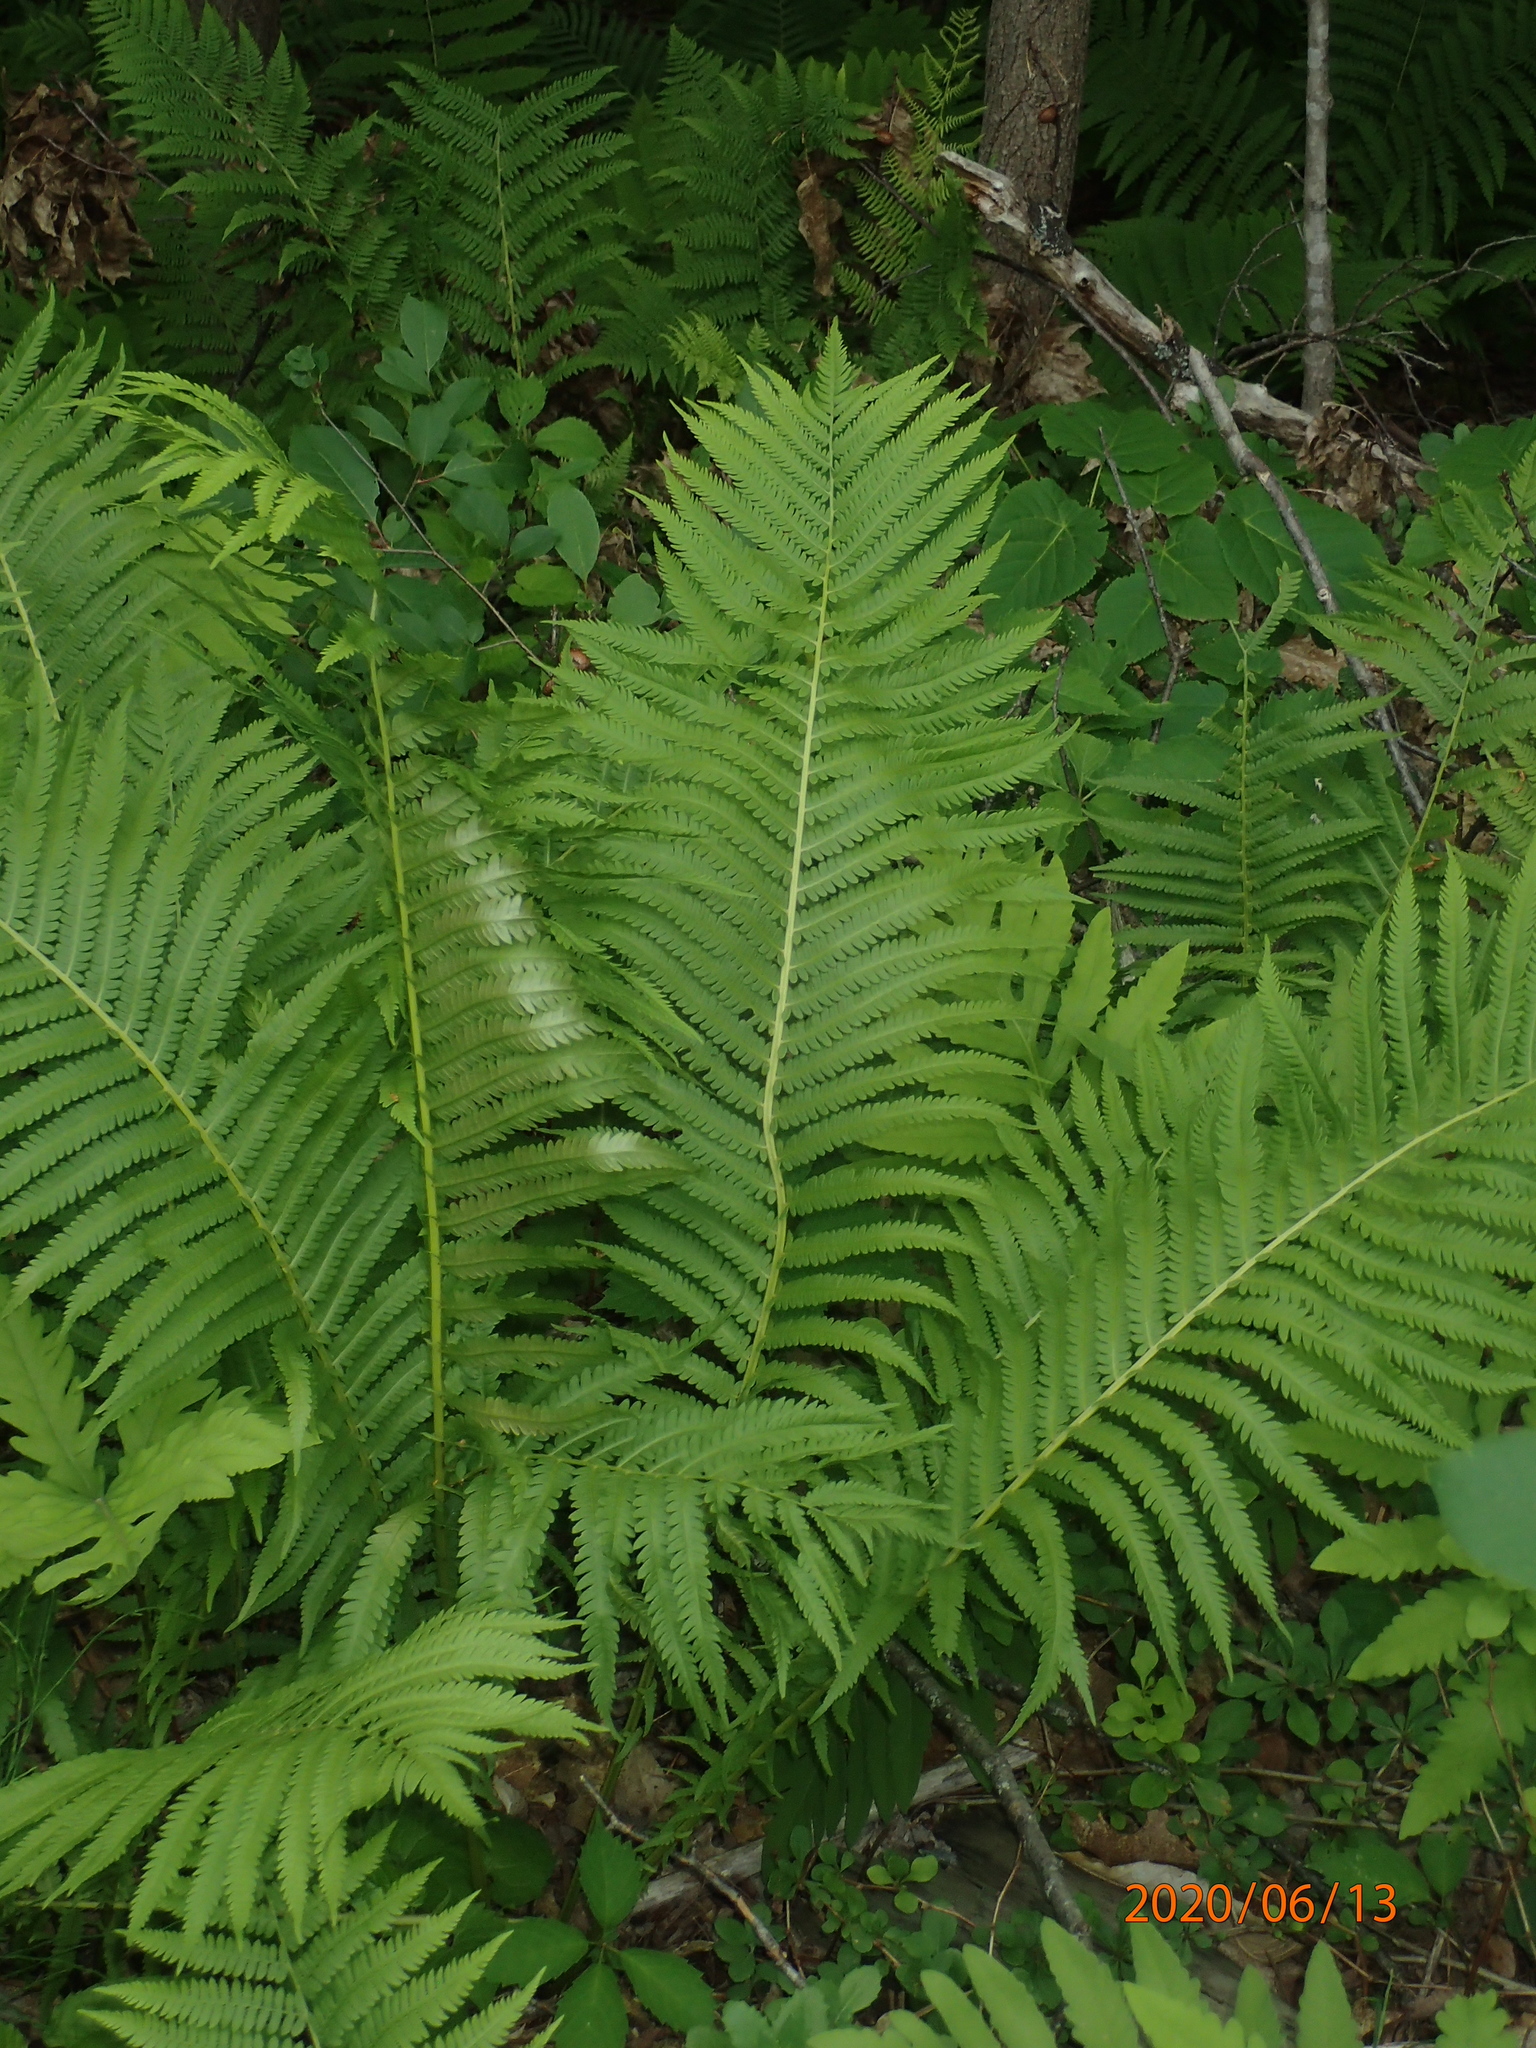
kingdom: Plantae
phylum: Tracheophyta
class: Polypodiopsida
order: Polypodiales
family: Onocleaceae
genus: Matteuccia
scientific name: Matteuccia struthiopteris
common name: Ostrich fern
